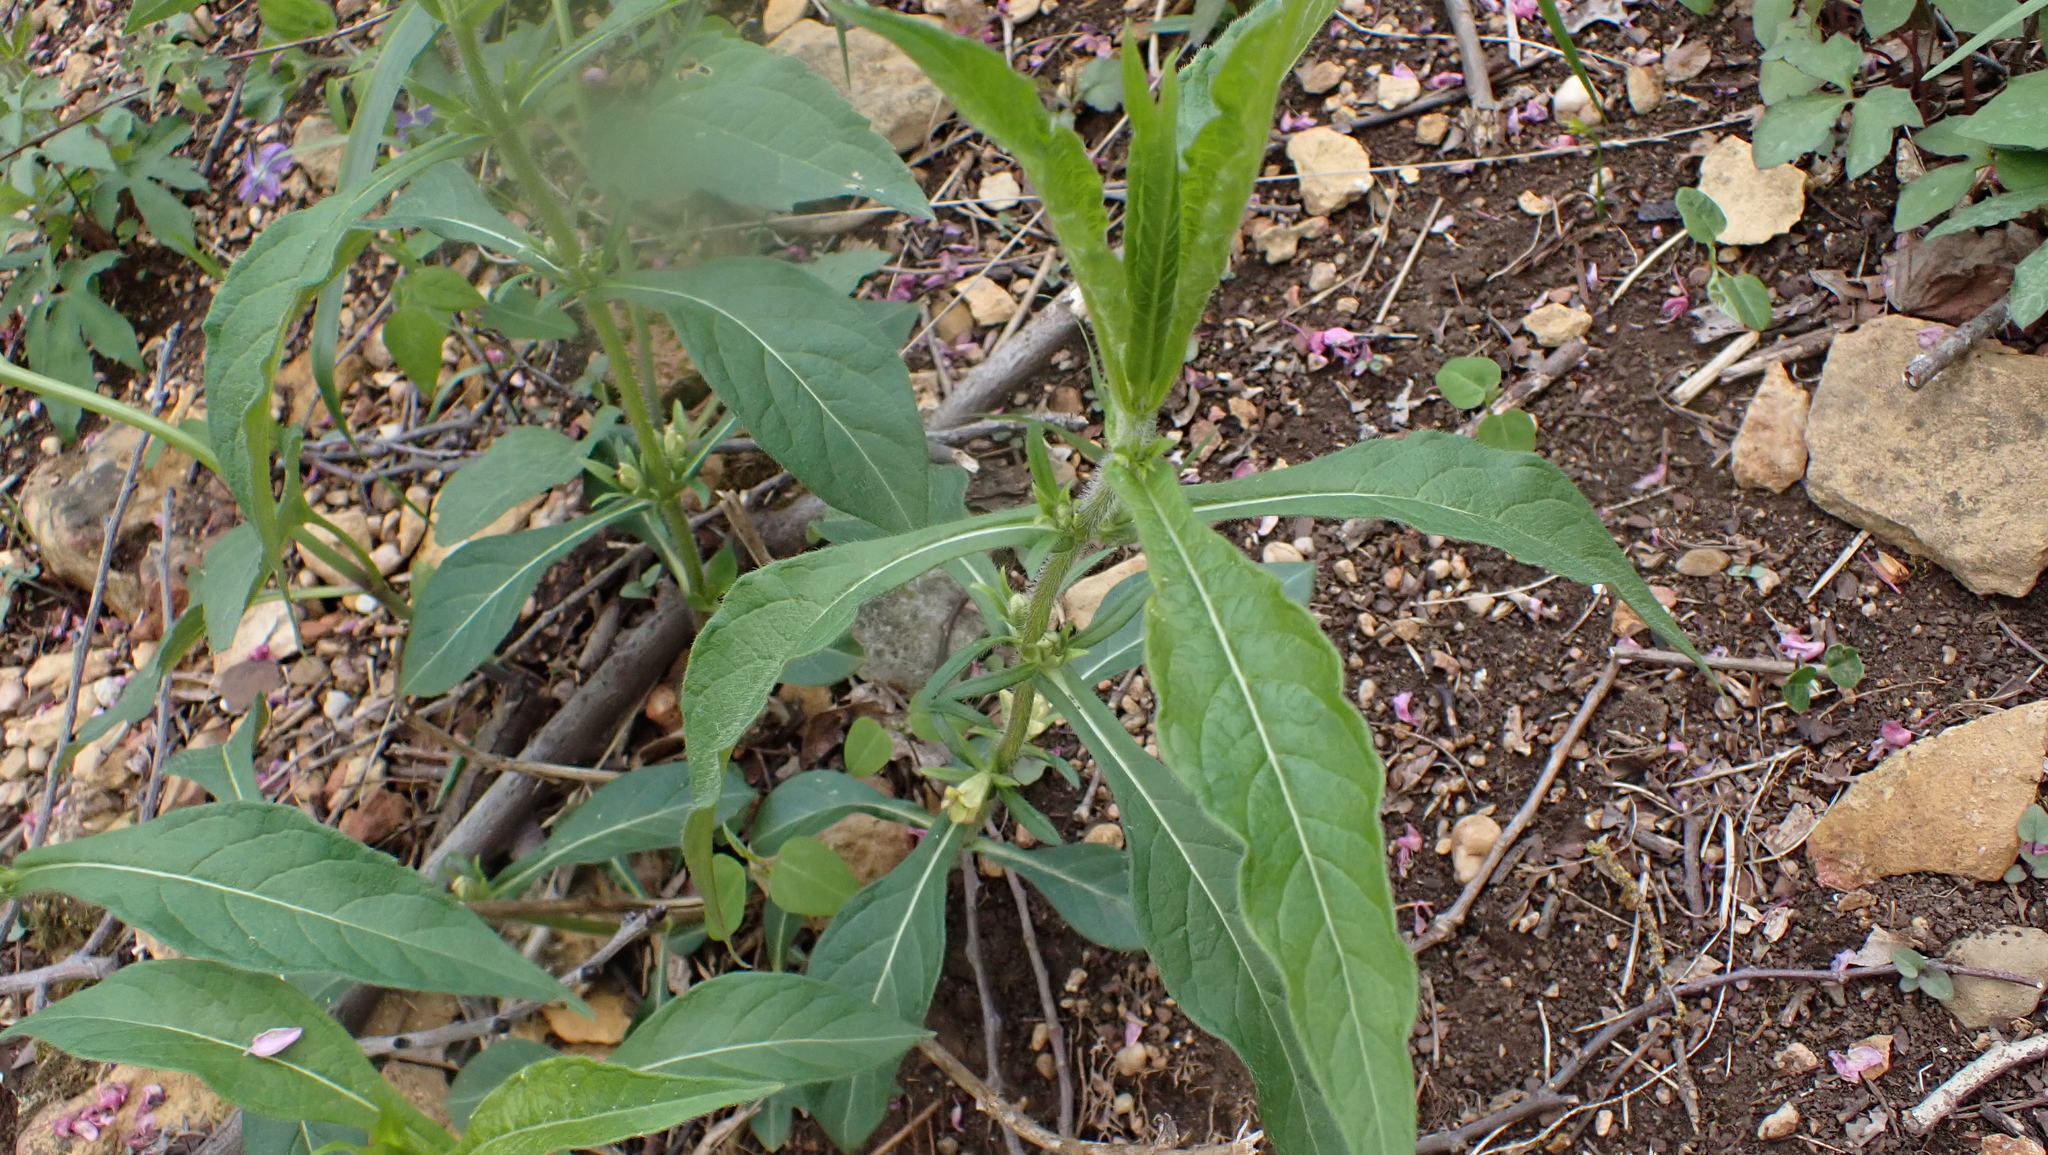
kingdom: Plantae
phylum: Tracheophyta
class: Magnoliopsida
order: Dipsacales
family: Caprifoliaceae
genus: Triosteum
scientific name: Triosteum aurantiacum
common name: Coffee tinker's-weed
